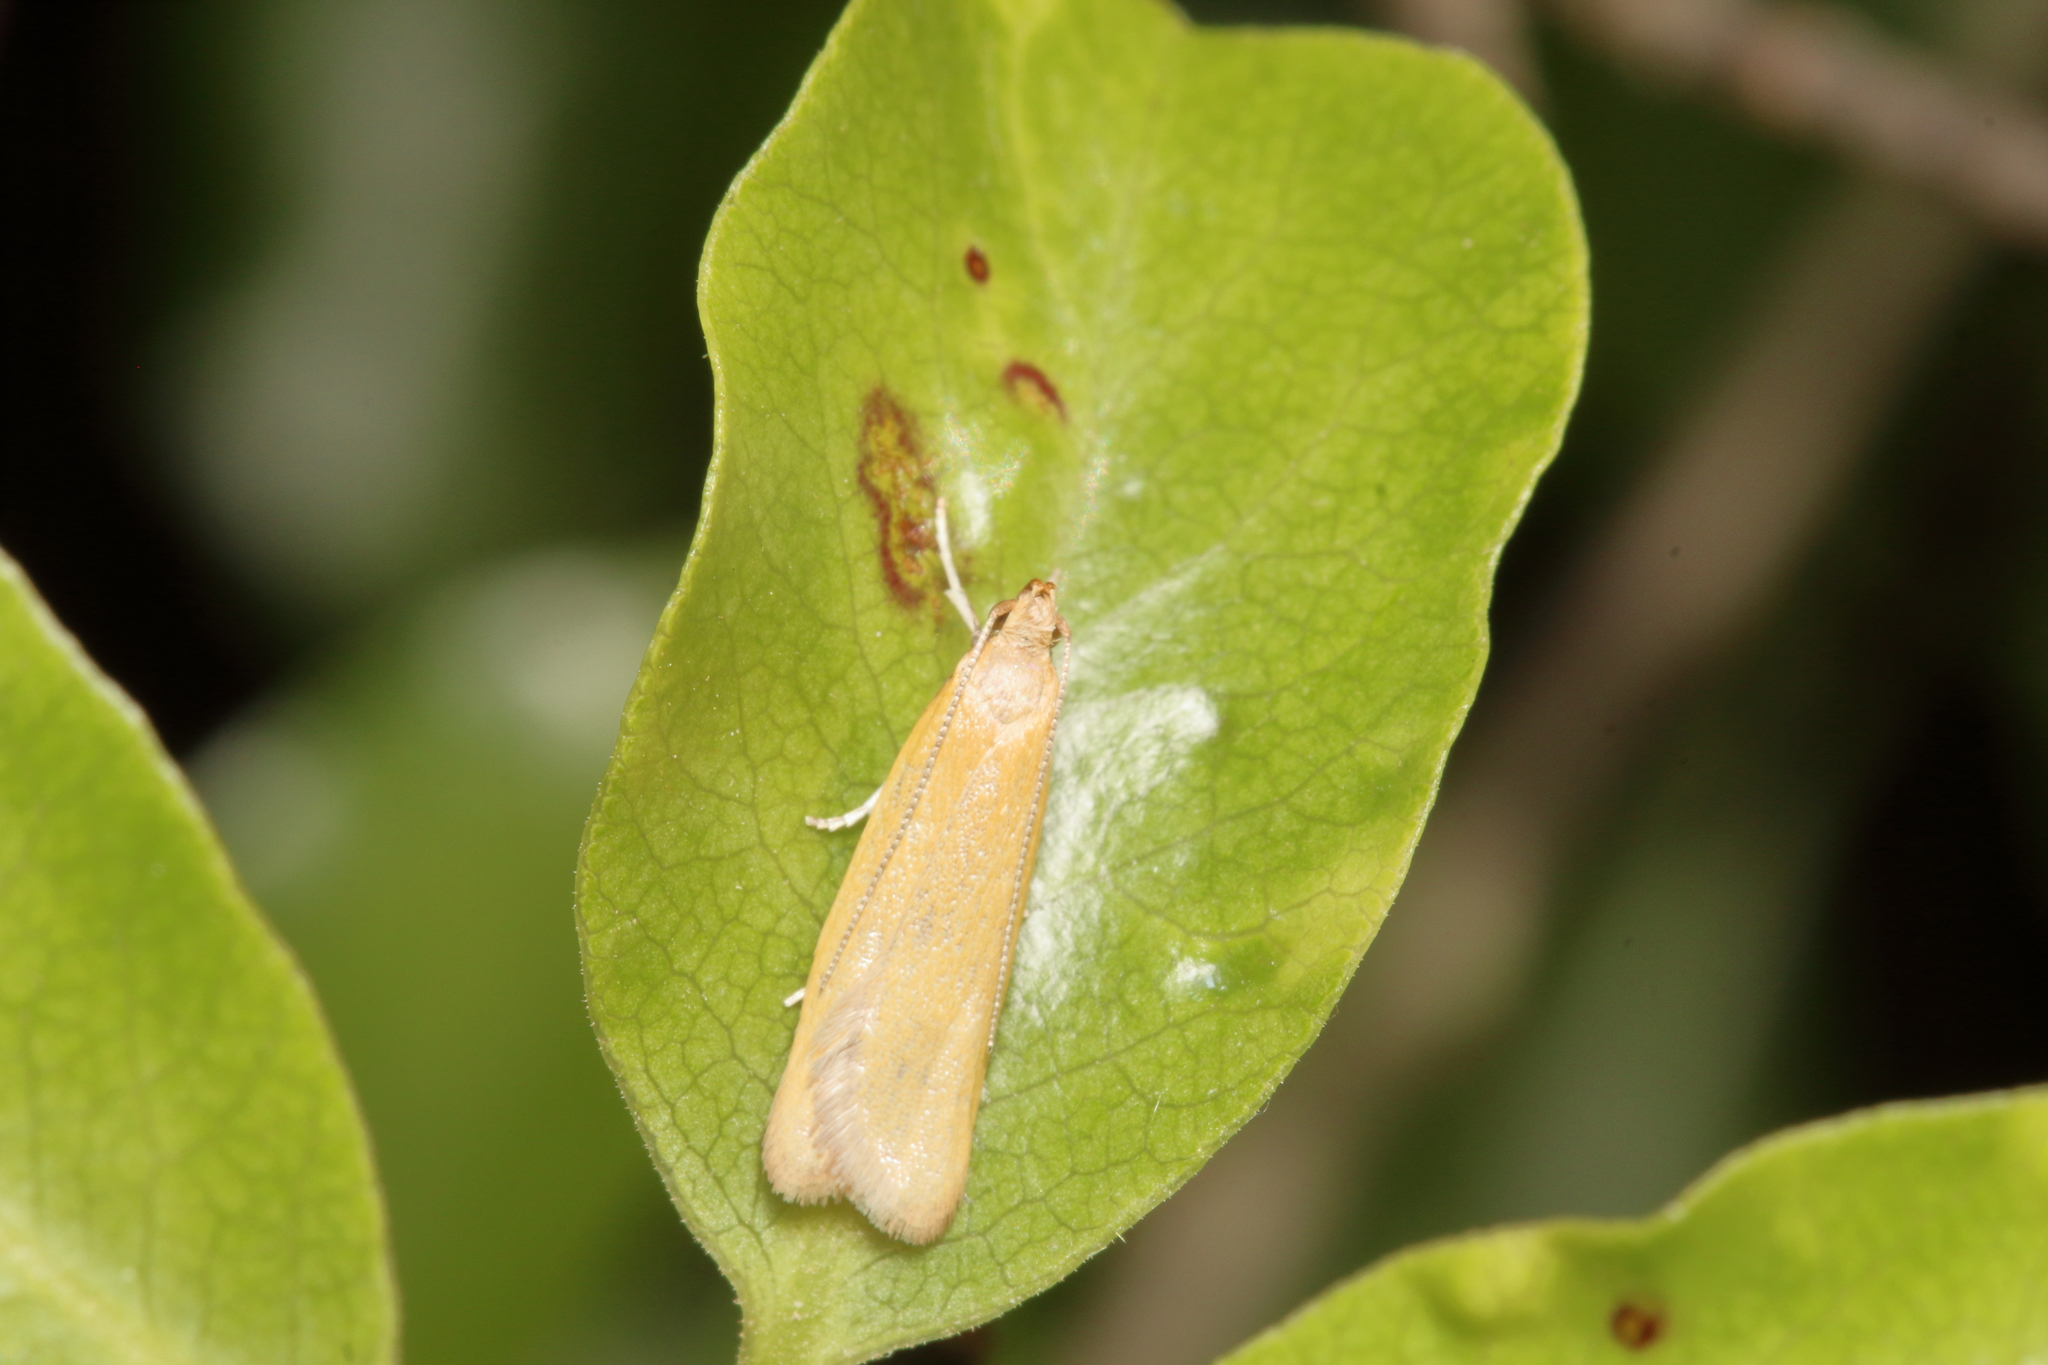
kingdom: Animalia
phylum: Arthropoda
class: Insecta
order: Lepidoptera
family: Oecophoridae
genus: Gymnobathra
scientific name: Gymnobathra parca
